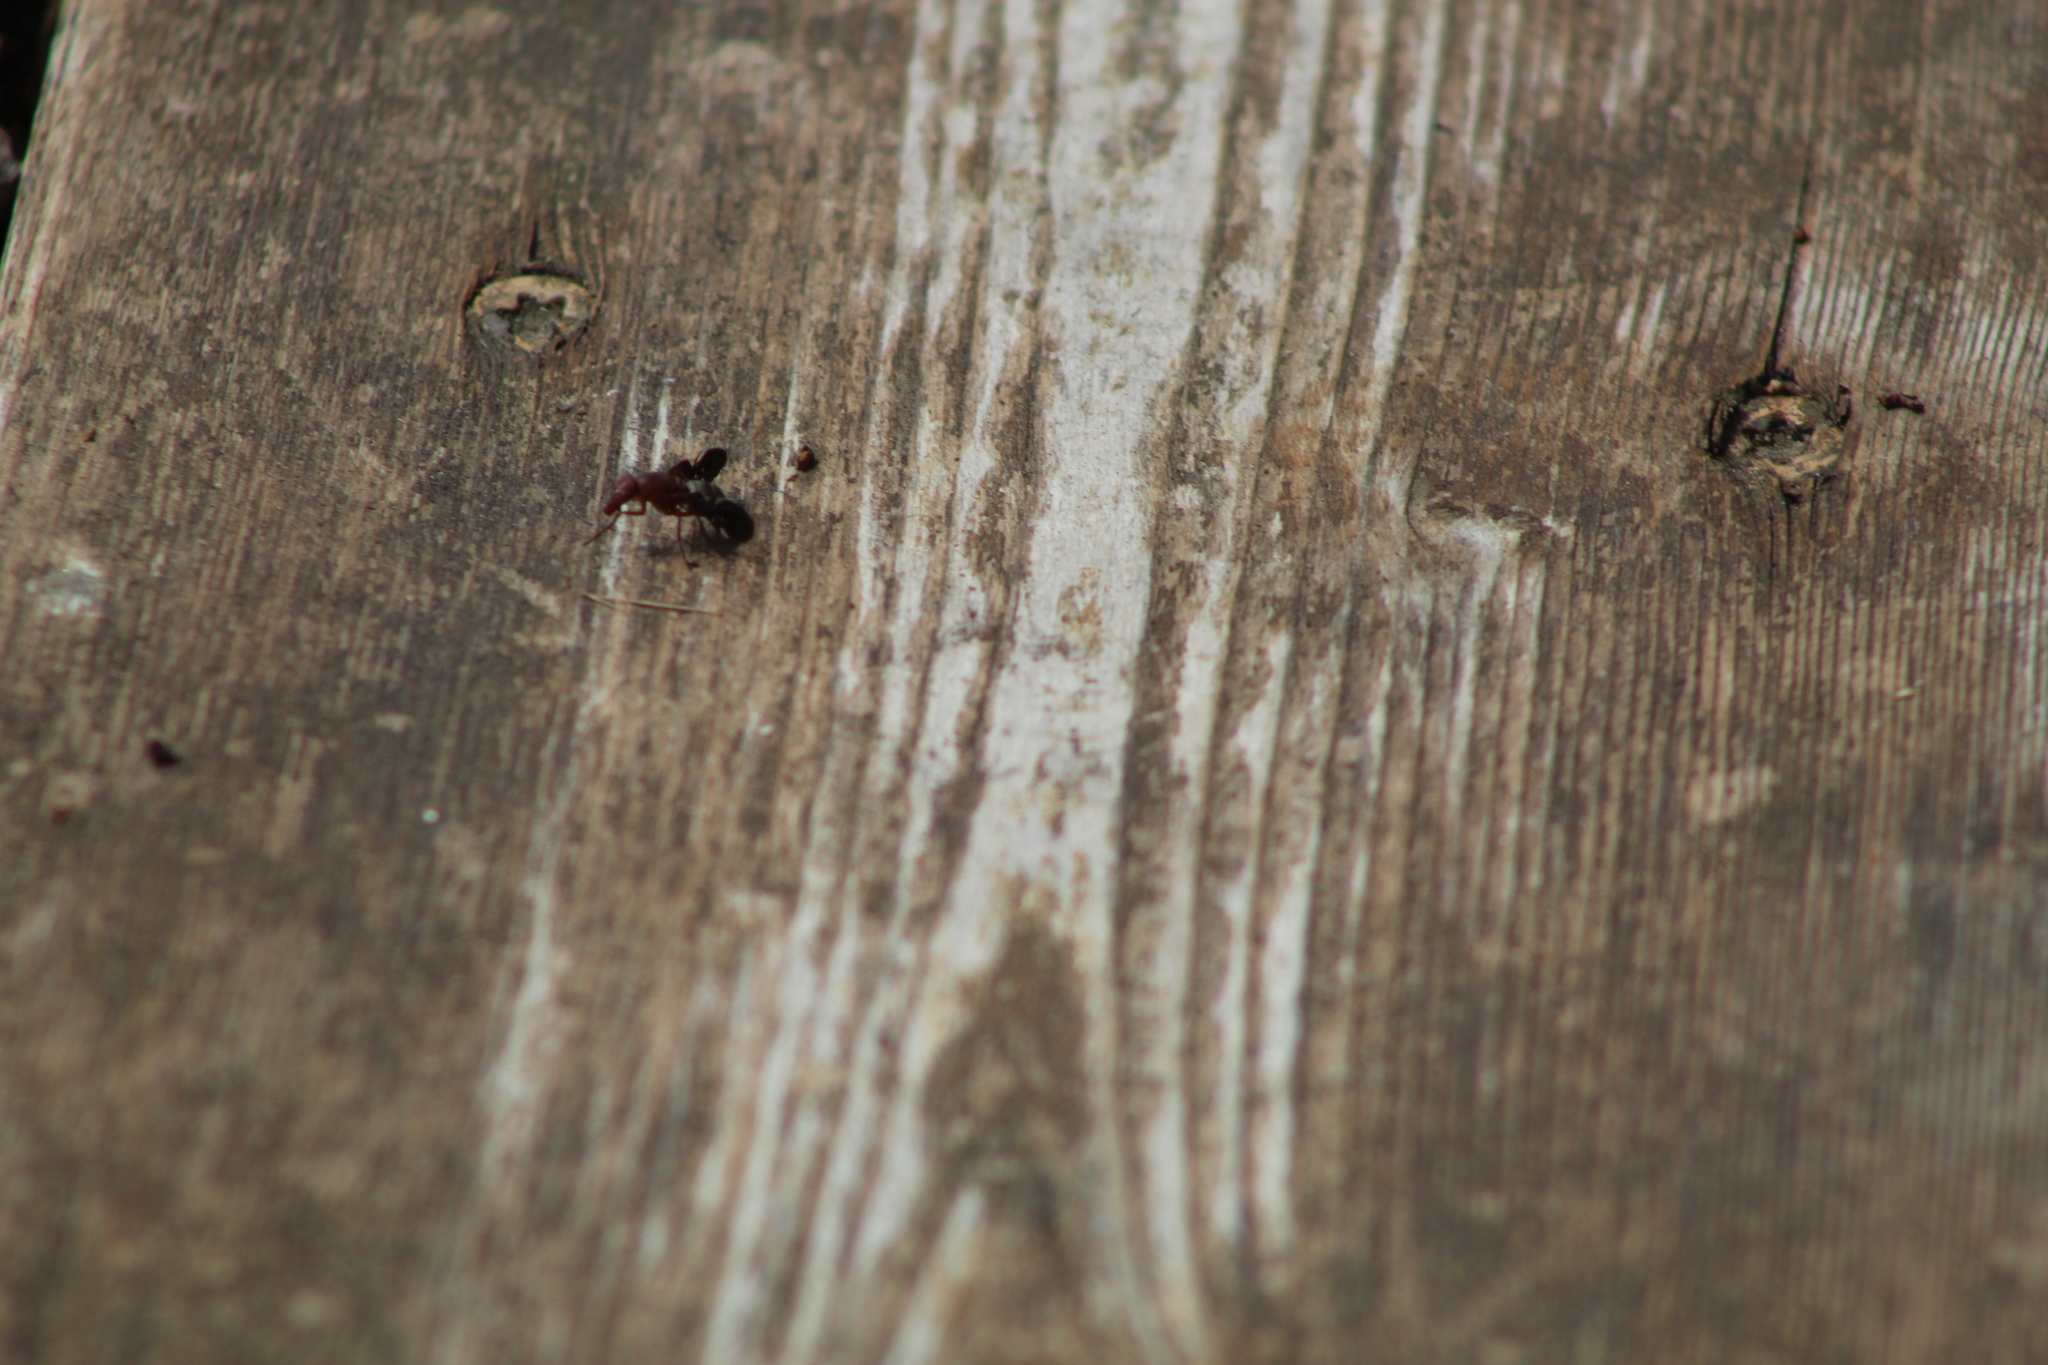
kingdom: Animalia
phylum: Arthropoda
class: Insecta
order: Diptera
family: Ulidiidae
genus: Delphinia
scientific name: Delphinia picta
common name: Common picture-winged fly
